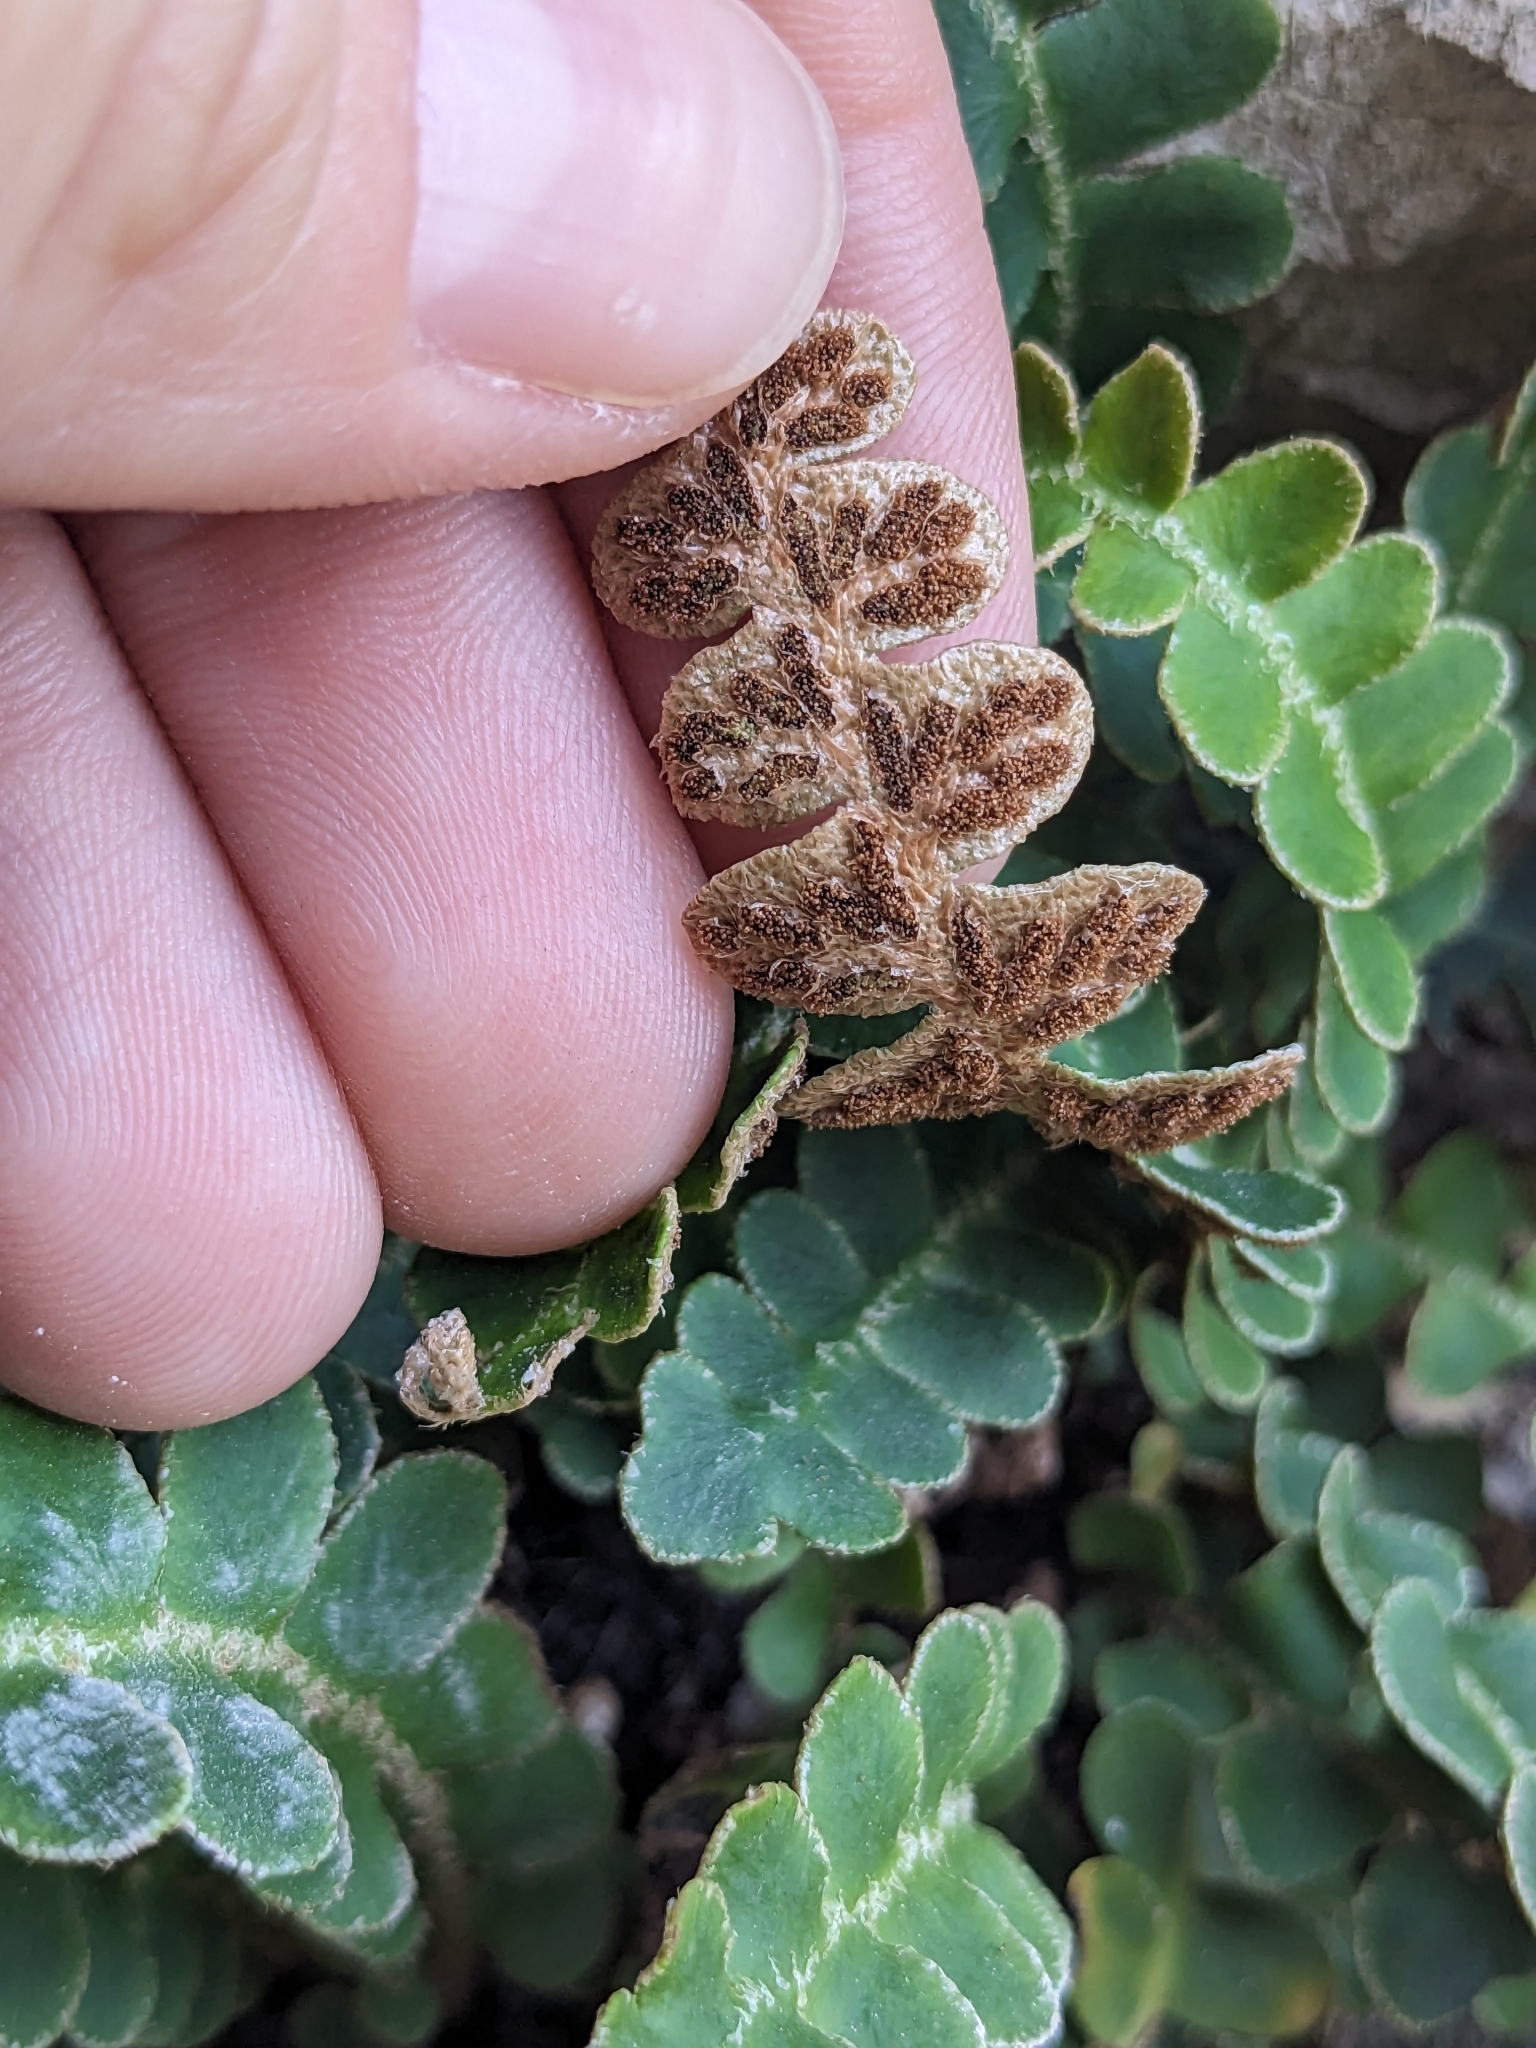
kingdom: Plantae
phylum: Tracheophyta
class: Polypodiopsida
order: Polypodiales
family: Aspleniaceae
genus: Asplenium
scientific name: Asplenium ceterach
